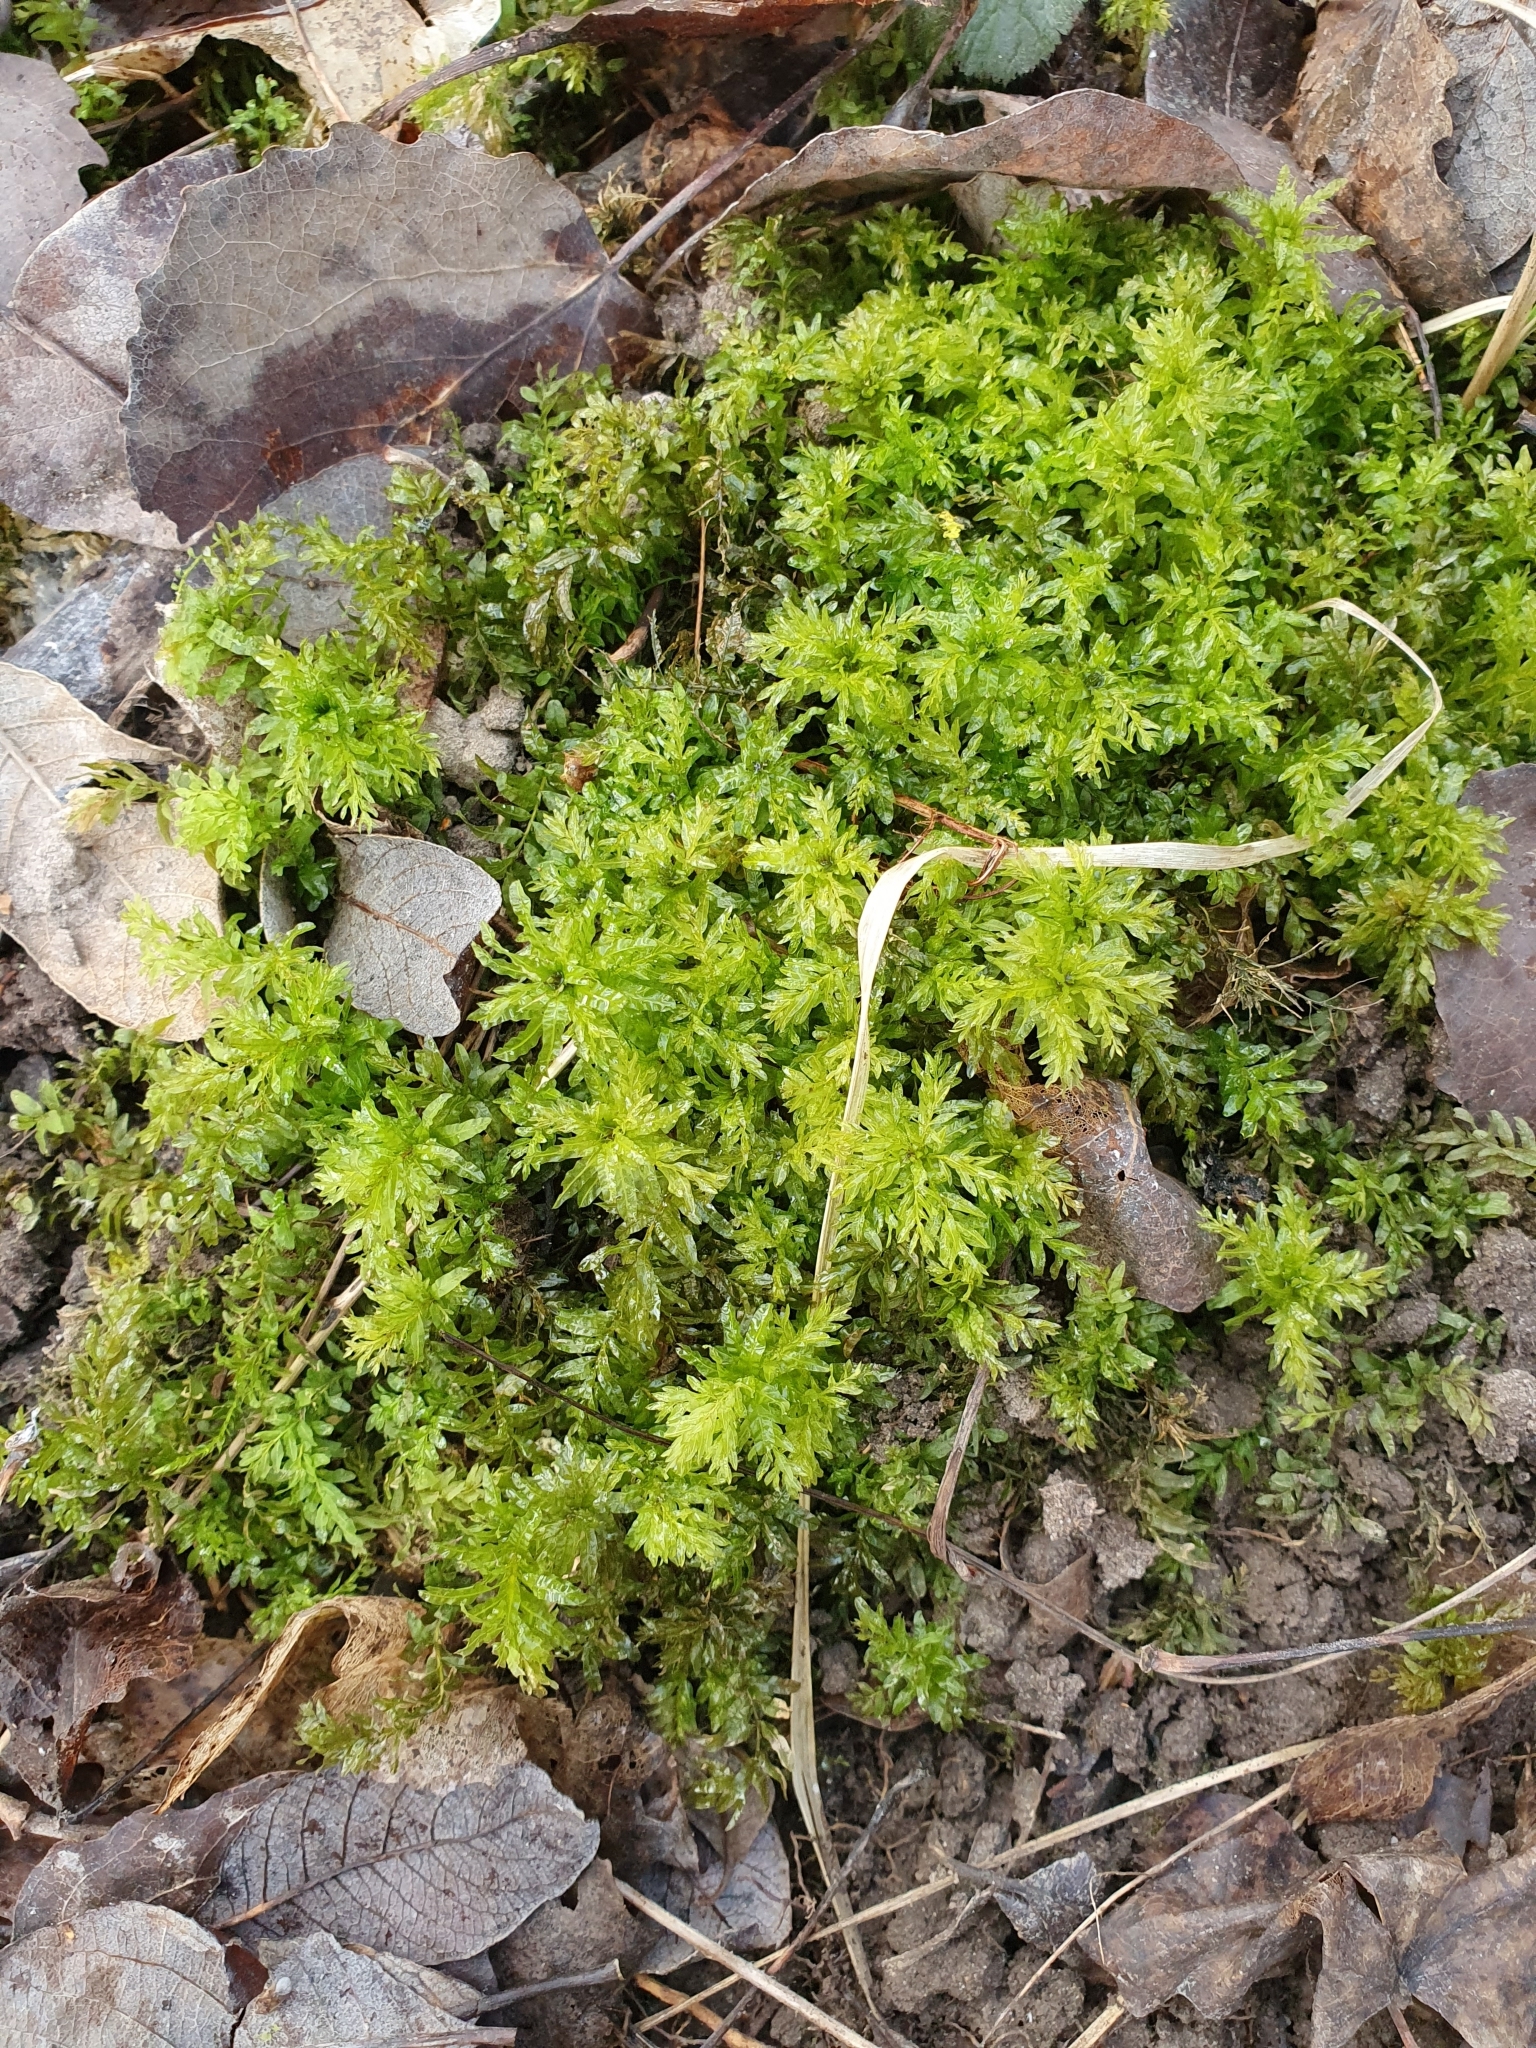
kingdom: Plantae
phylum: Bryophyta
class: Bryopsida
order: Bryales
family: Mniaceae
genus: Plagiomnium
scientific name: Plagiomnium undulatum
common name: Hart's-tongue thyme-moss
